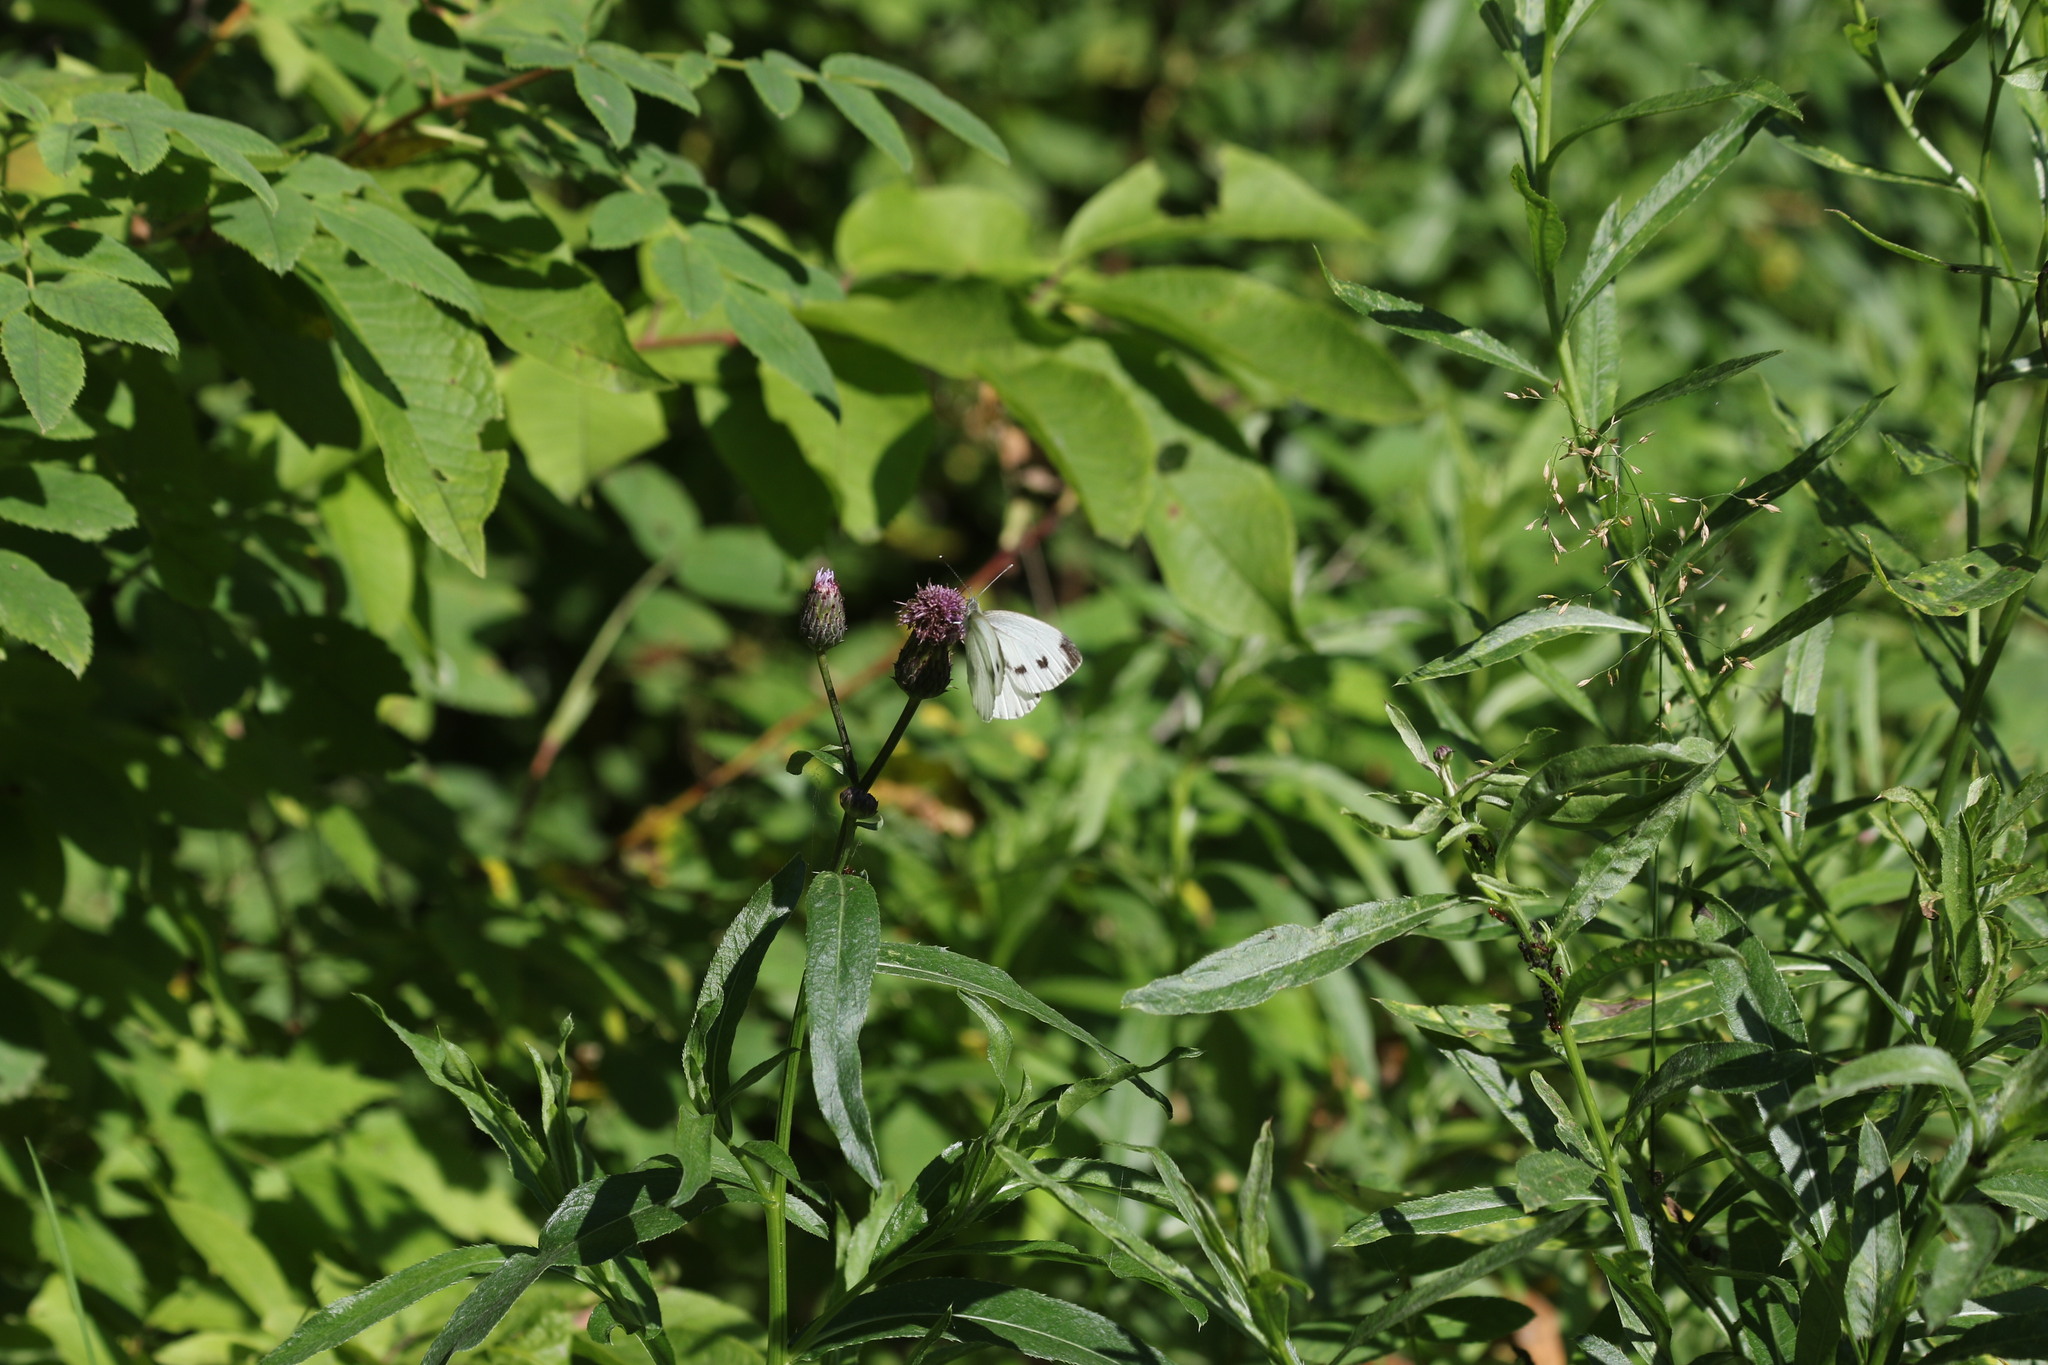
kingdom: Animalia
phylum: Arthropoda
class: Insecta
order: Lepidoptera
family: Pieridae
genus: Pieris
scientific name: Pieris napi
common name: Green-veined white
